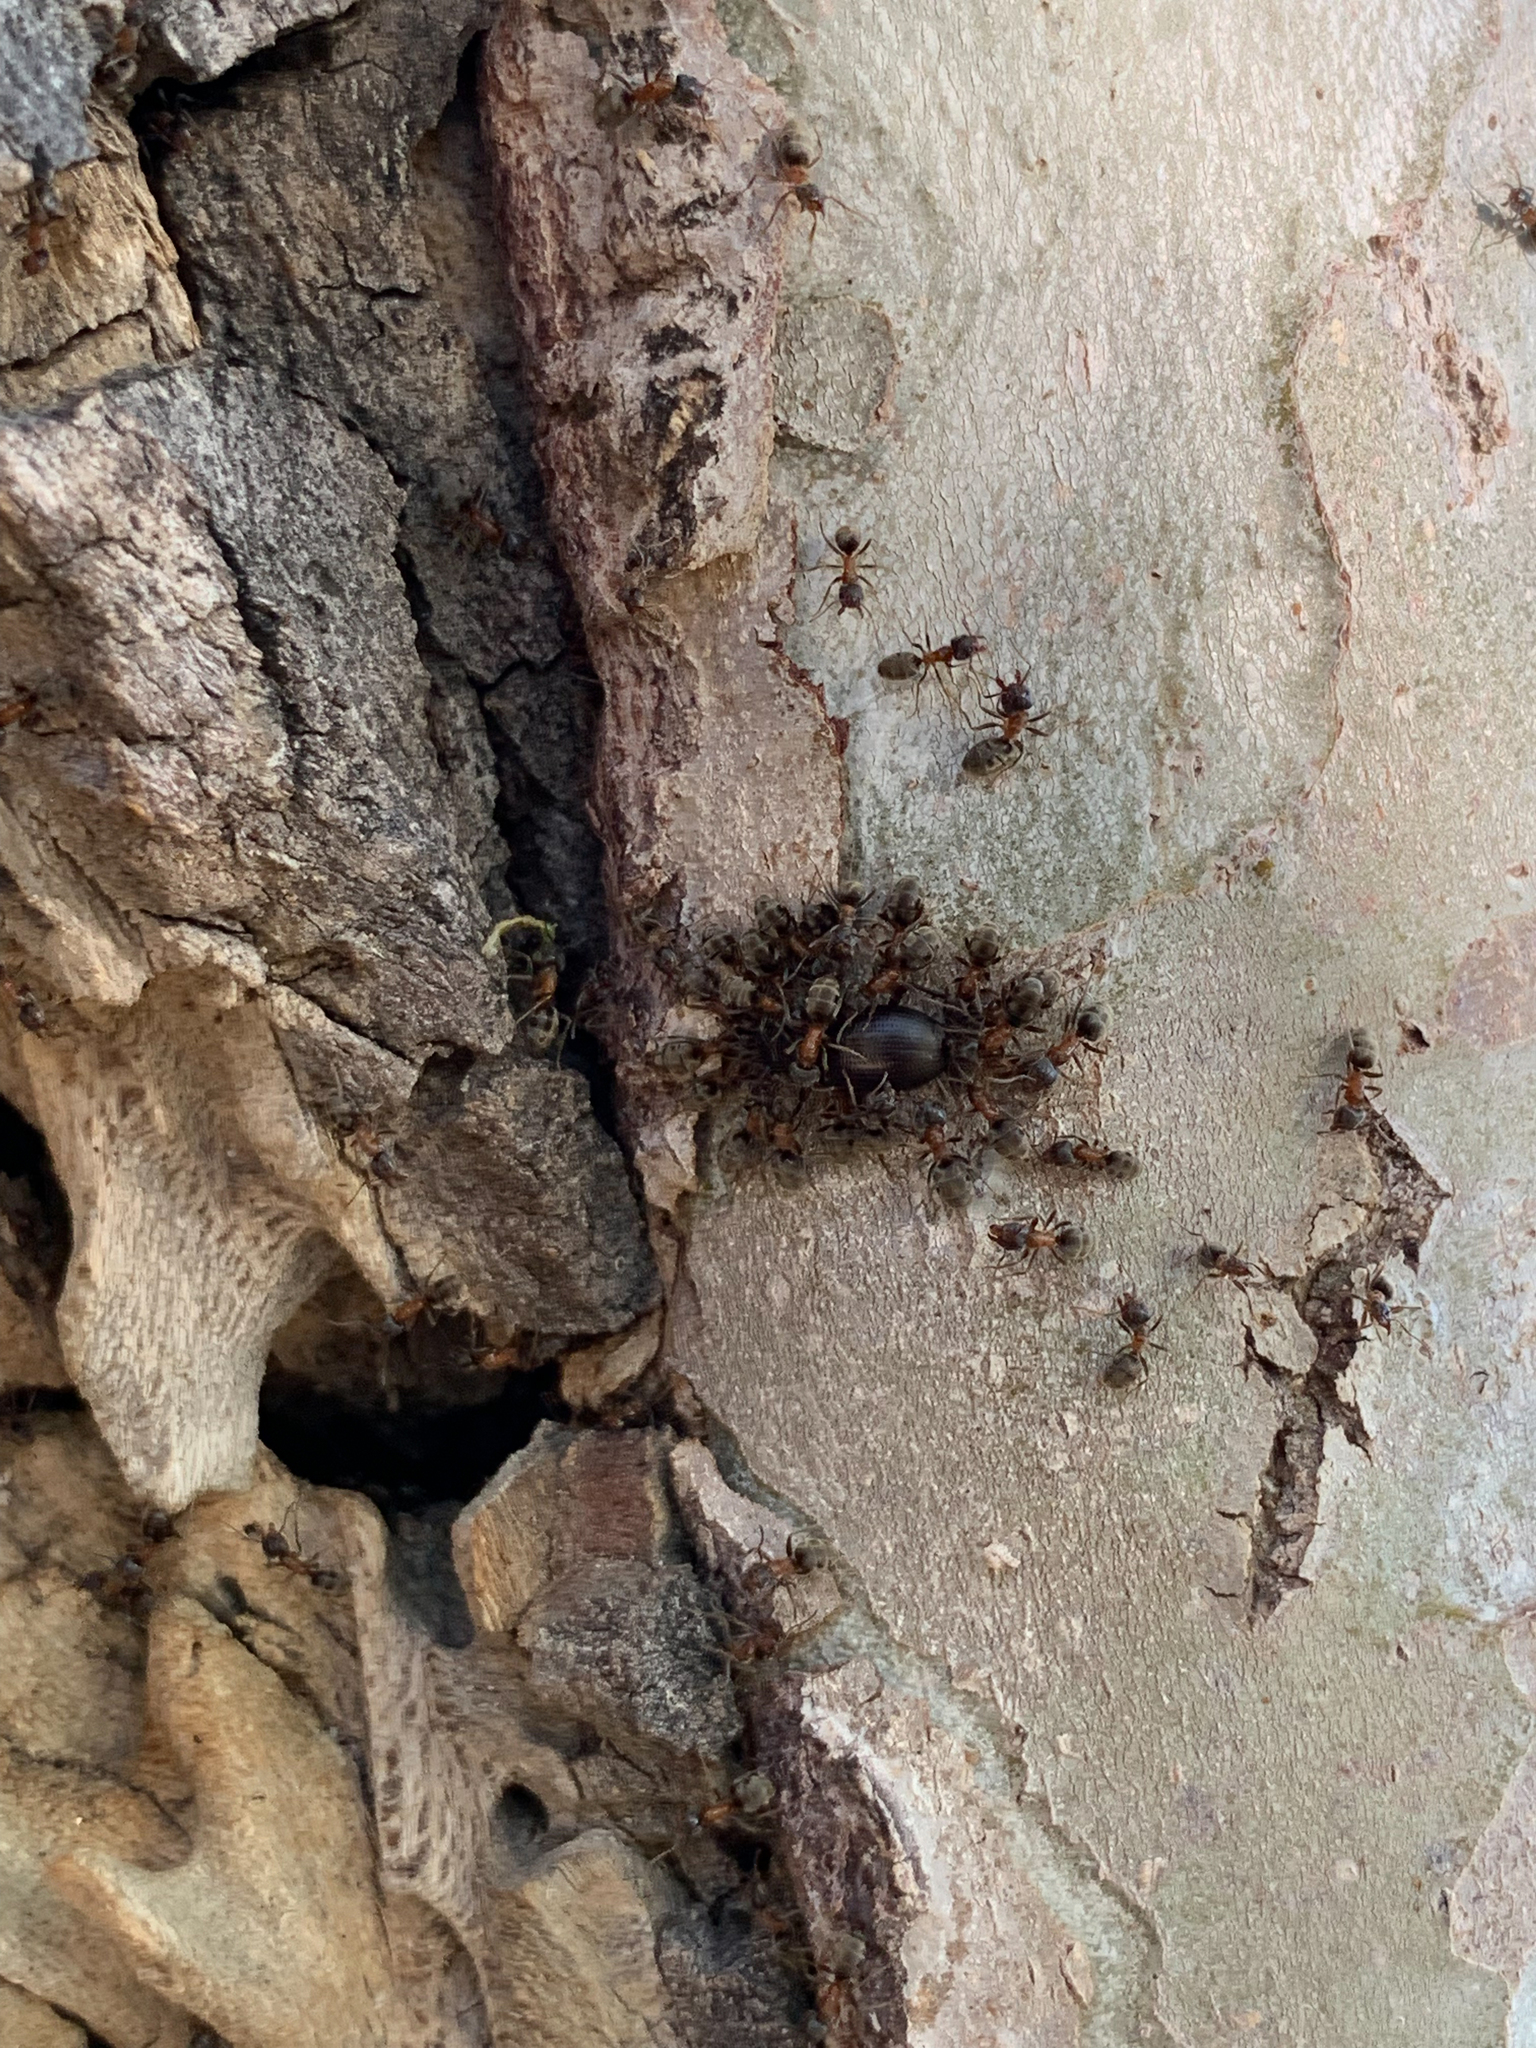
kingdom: Animalia
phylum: Arthropoda
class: Insecta
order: Hymenoptera
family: Formicidae
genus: Liometopum
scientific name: Liometopum occidentale
